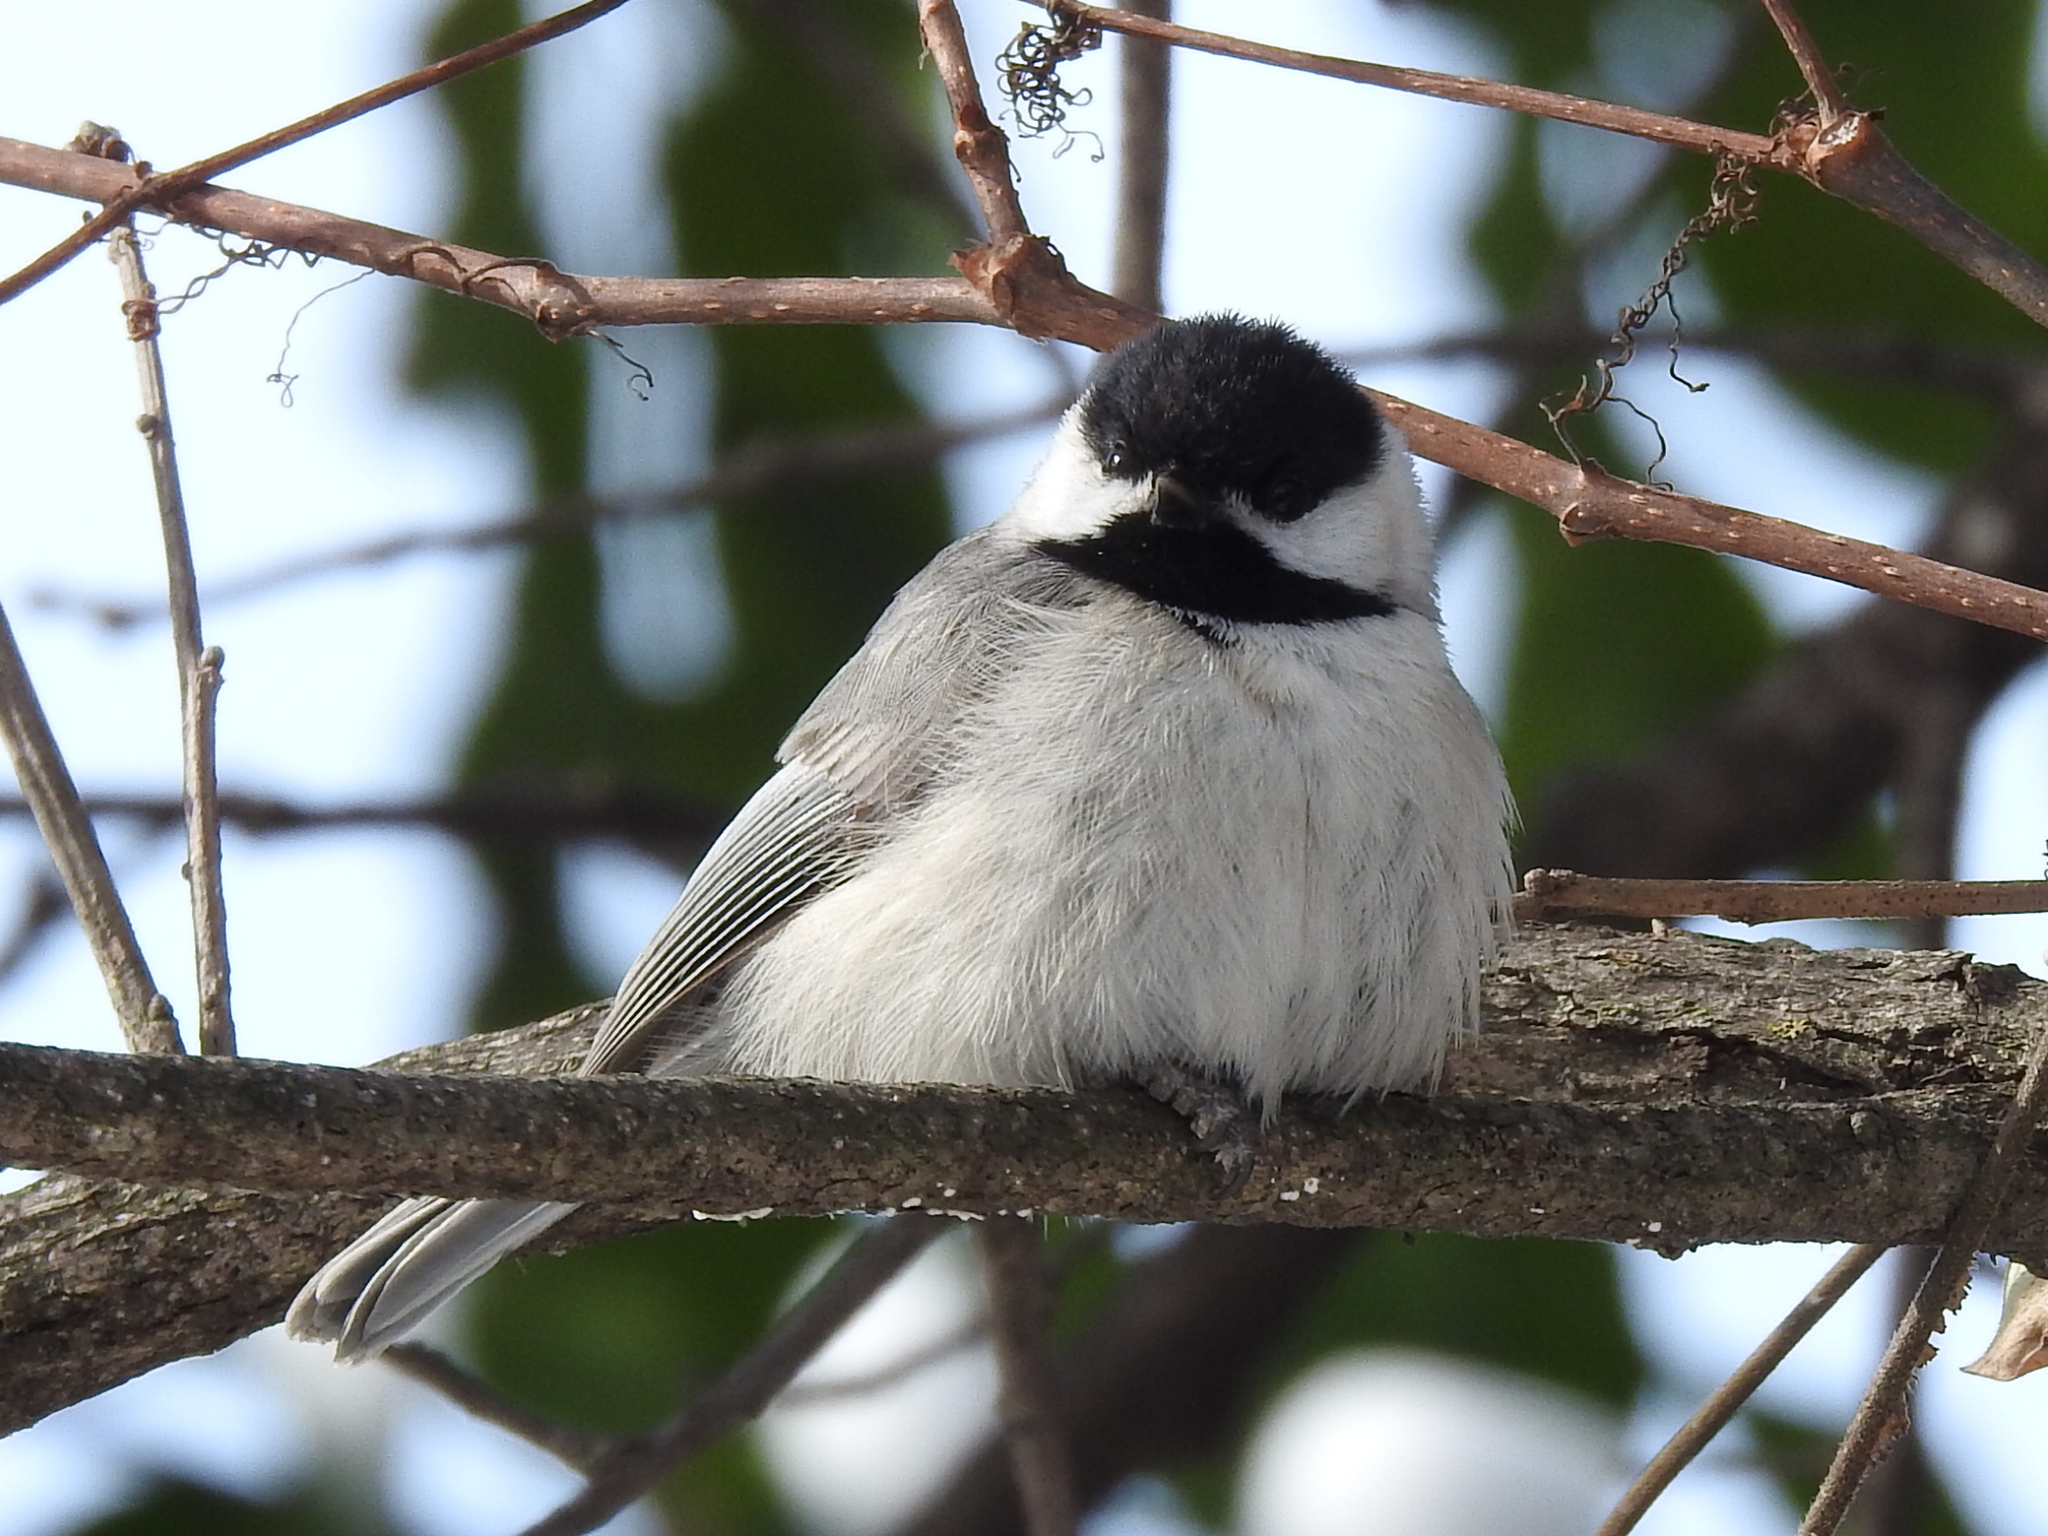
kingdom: Animalia
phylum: Chordata
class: Aves
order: Passeriformes
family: Paridae
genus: Poecile
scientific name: Poecile carolinensis
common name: Carolina chickadee
